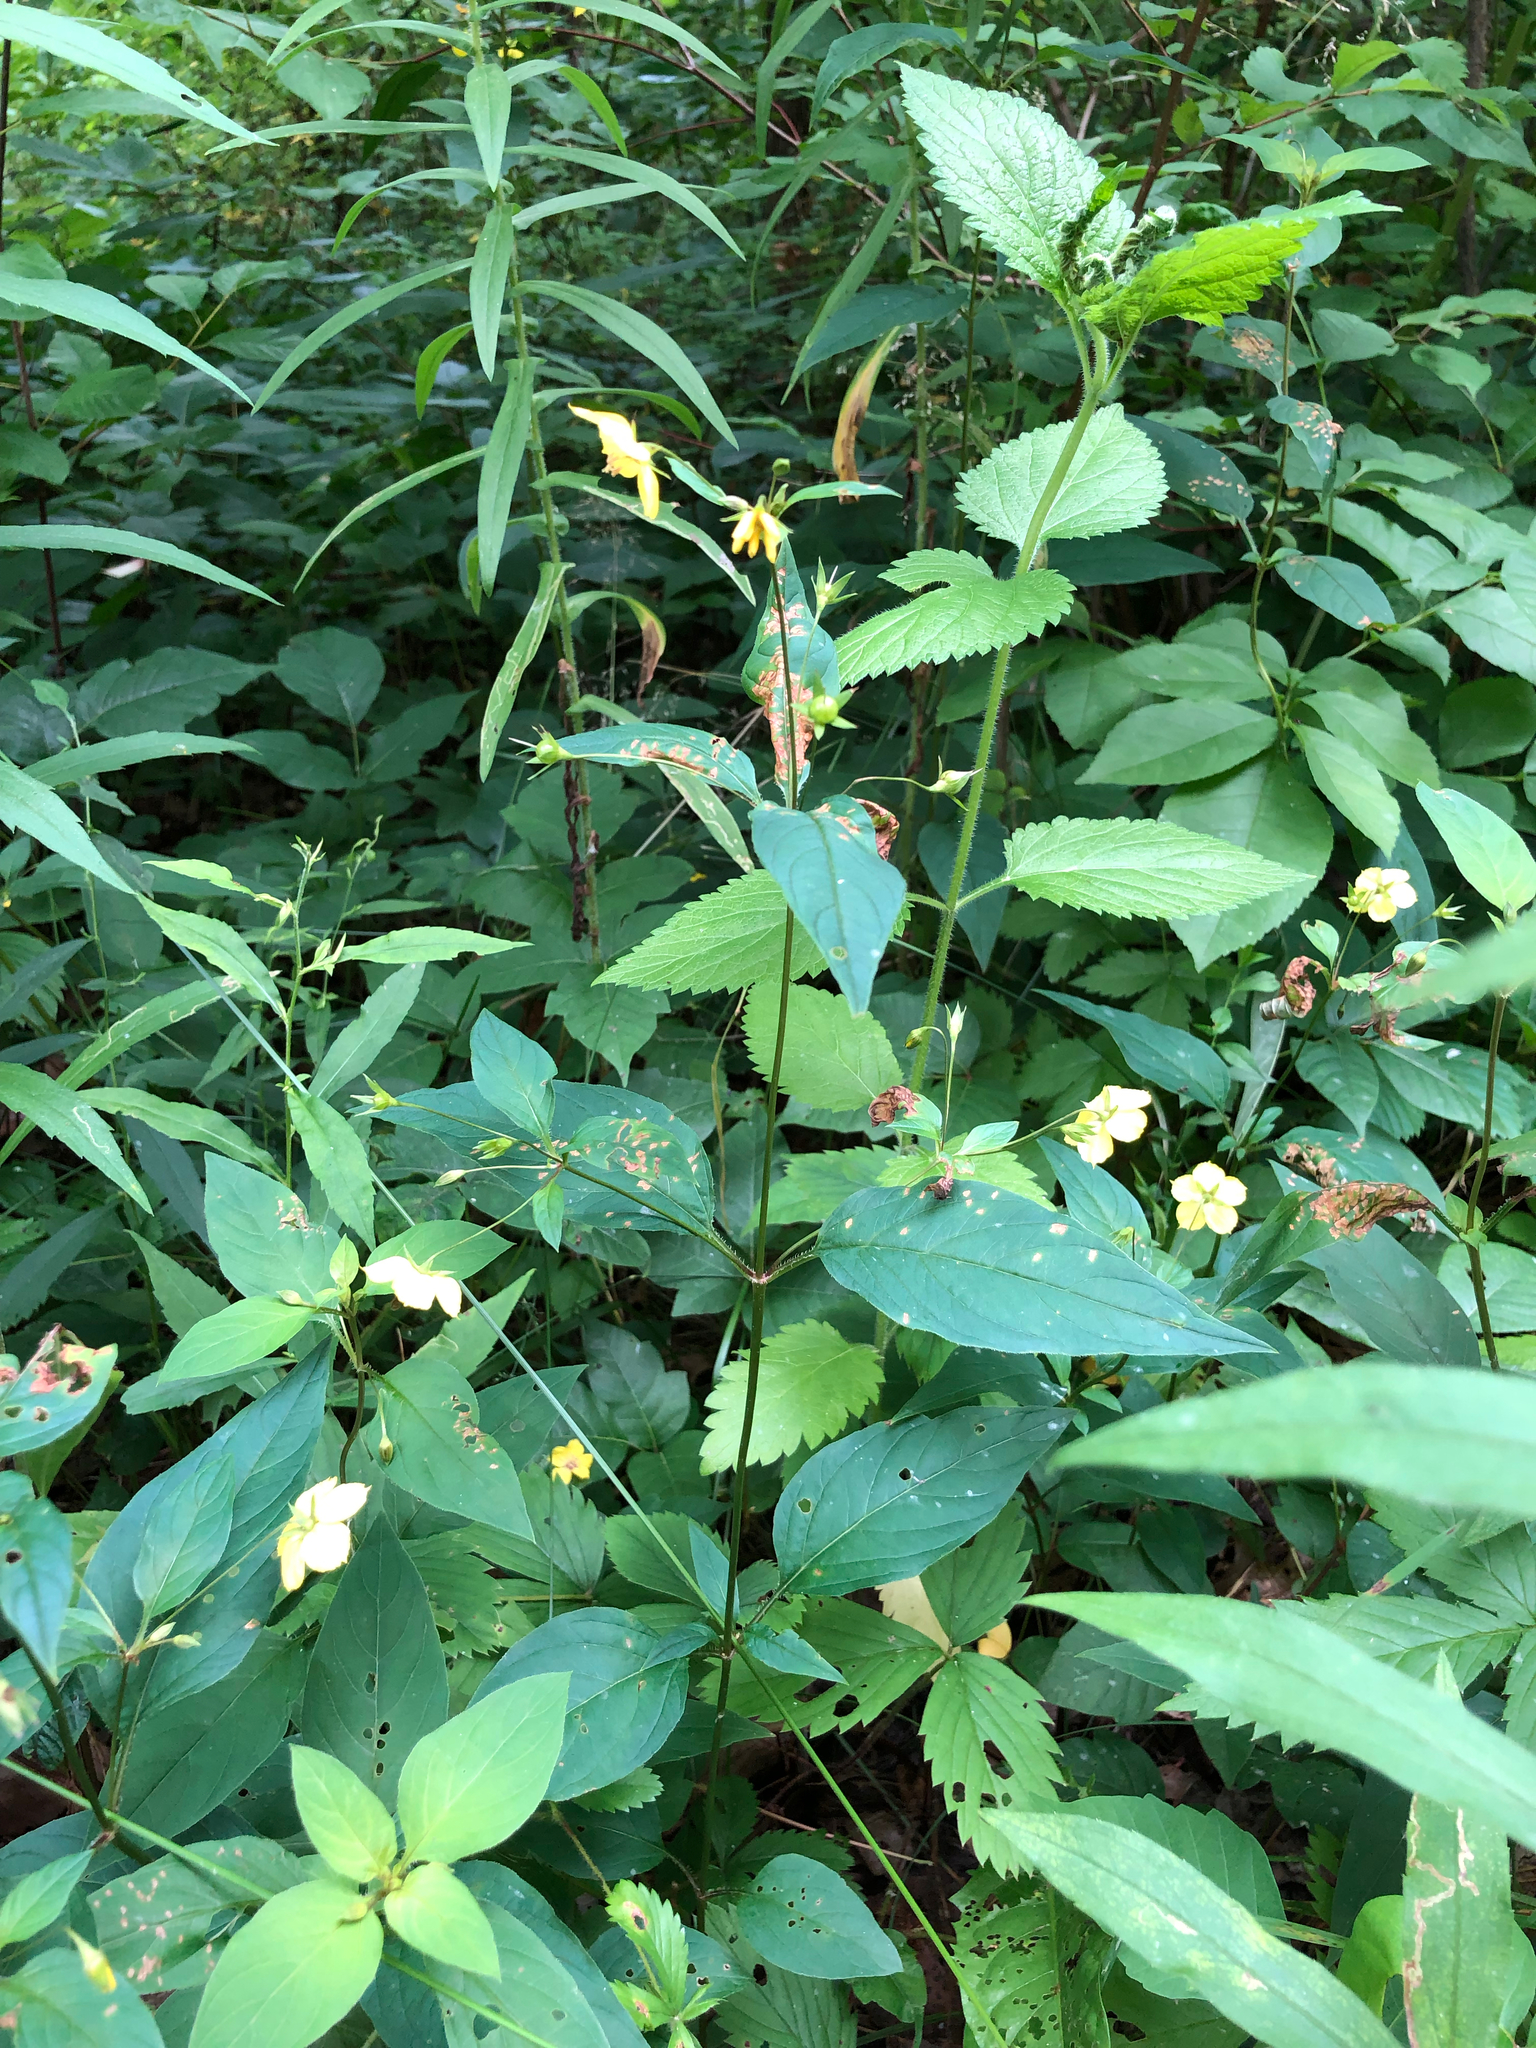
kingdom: Plantae
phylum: Tracheophyta
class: Magnoliopsida
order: Ericales
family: Primulaceae
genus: Lysimachia
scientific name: Lysimachia ciliata
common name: Fringed loosestrife
